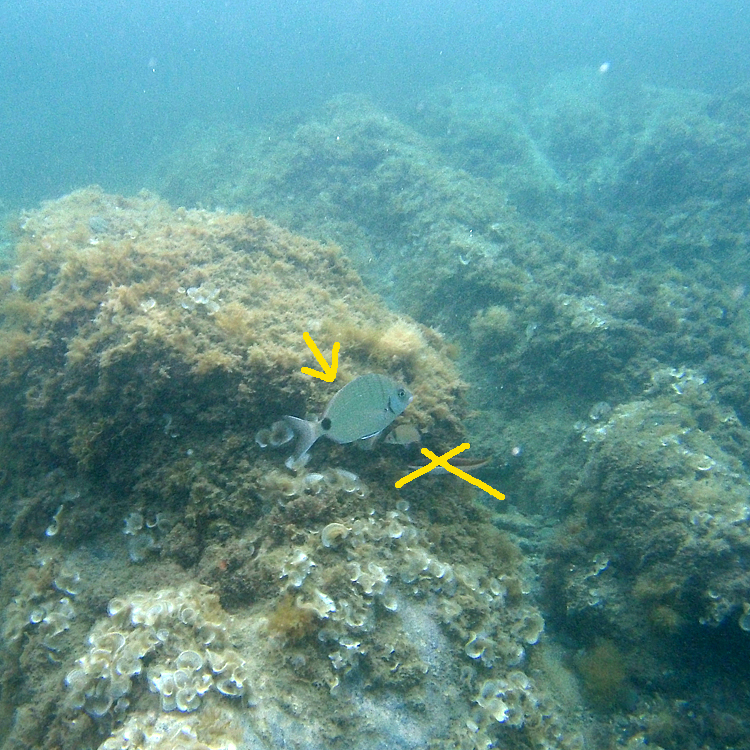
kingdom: Animalia
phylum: Chordata
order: Perciformes
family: Sparidae
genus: Diplodus
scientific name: Diplodus sargus
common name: White seabream
